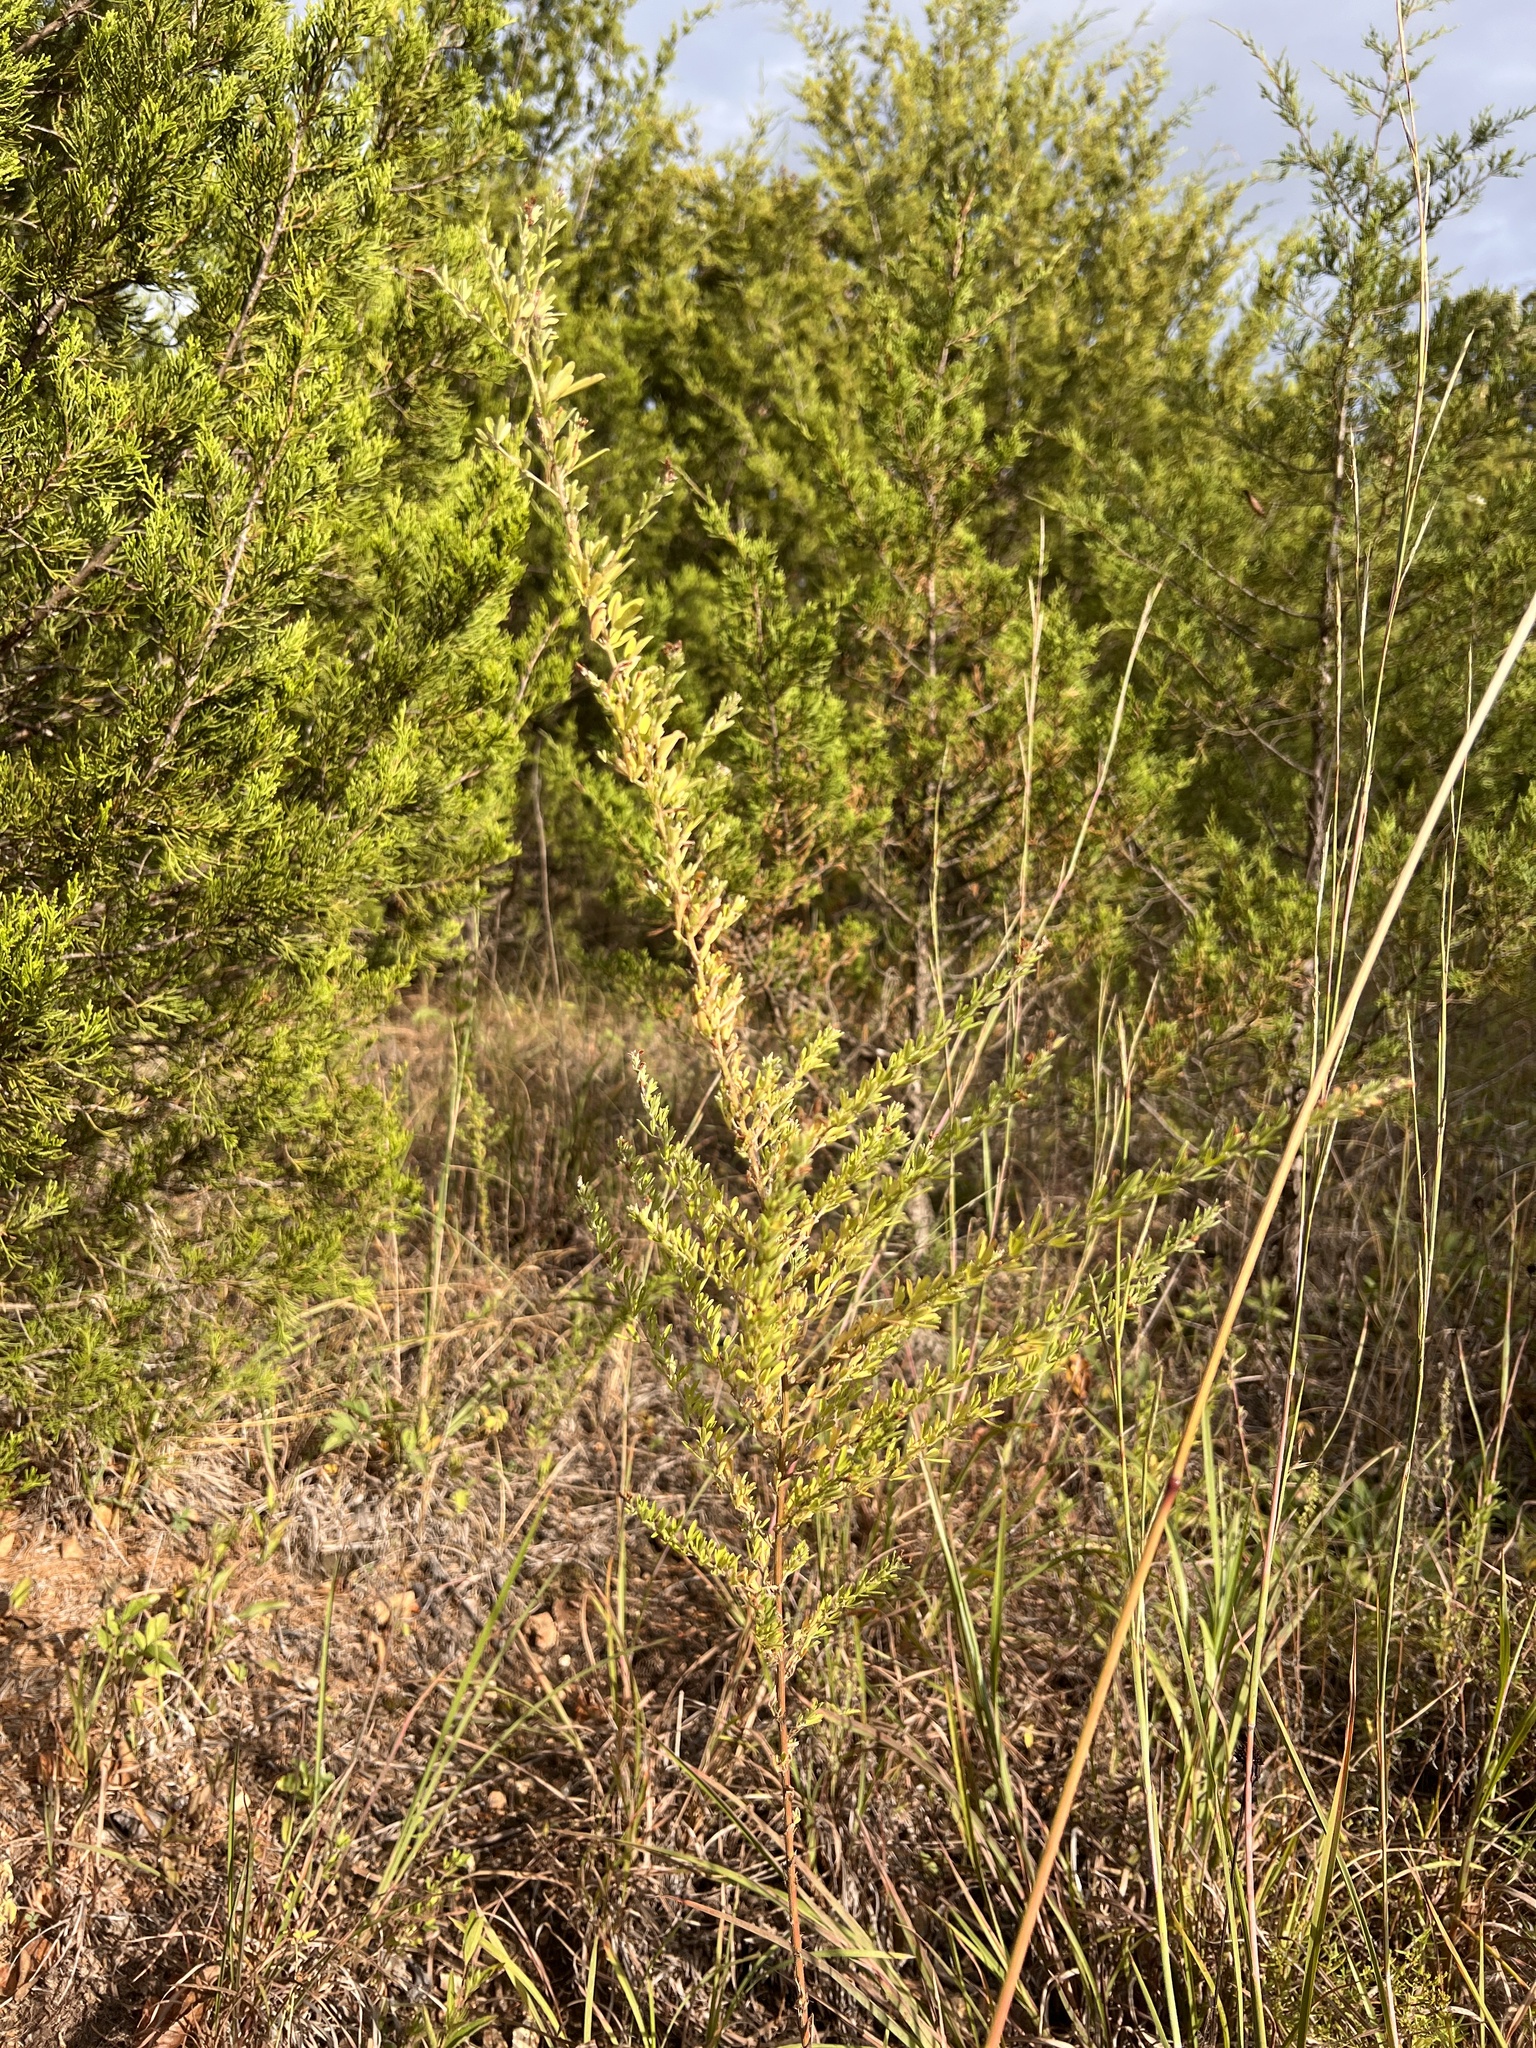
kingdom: Plantae
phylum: Tracheophyta
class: Magnoliopsida
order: Fabales
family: Fabaceae
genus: Lespedeza
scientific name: Lespedeza cuneata
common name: Chinese bush-clover
